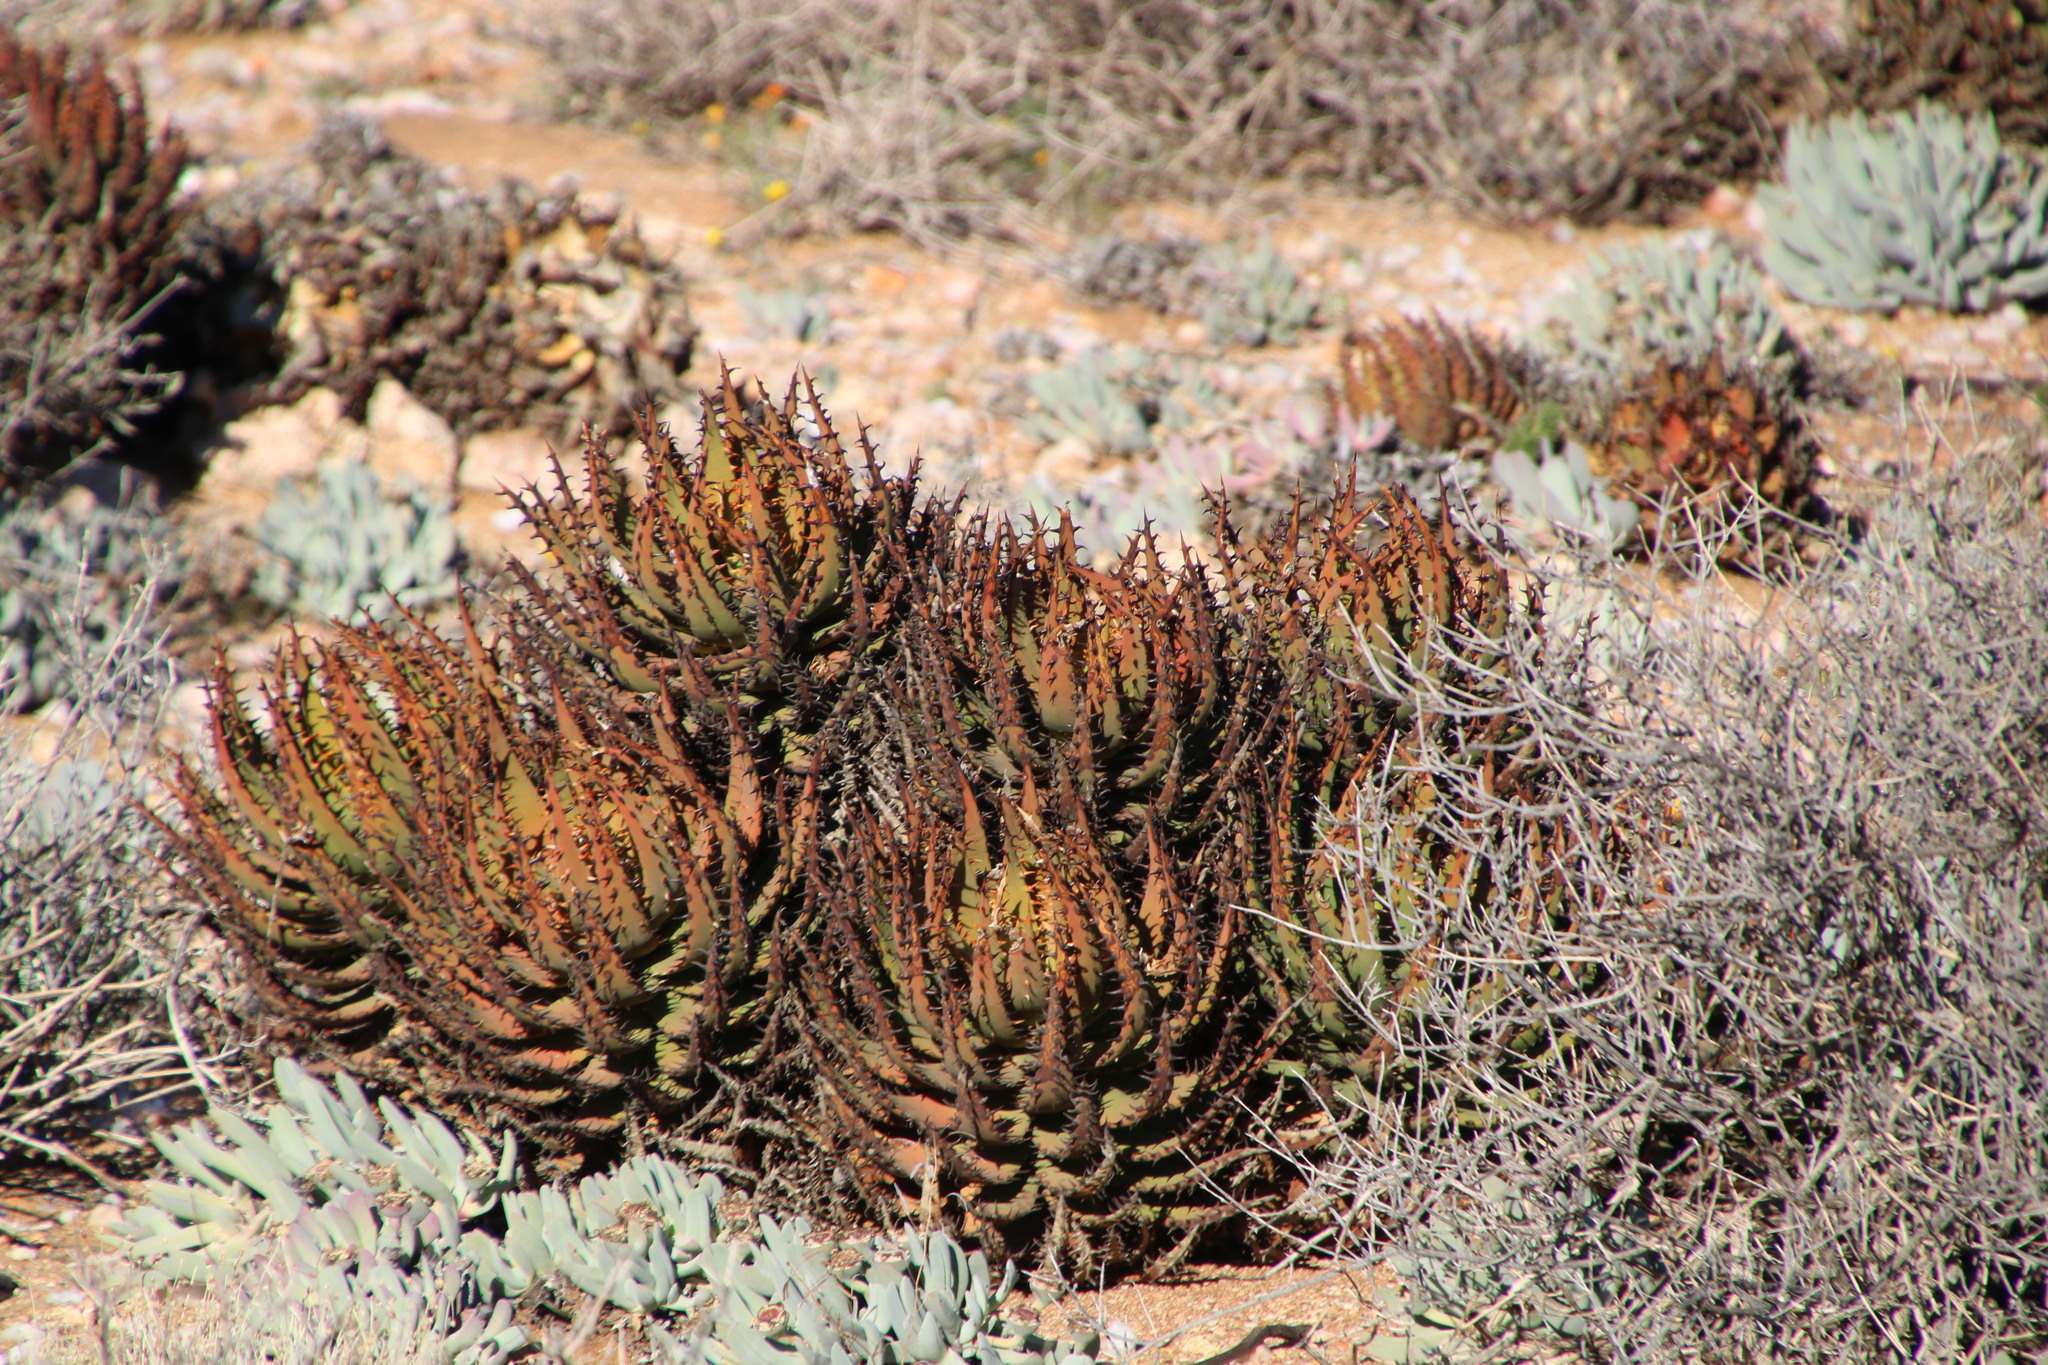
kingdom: Plantae
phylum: Tracheophyta
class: Liliopsida
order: Asparagales
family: Asphodelaceae
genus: Aloe
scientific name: Aloe melanacantha
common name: Black thorn aloe
